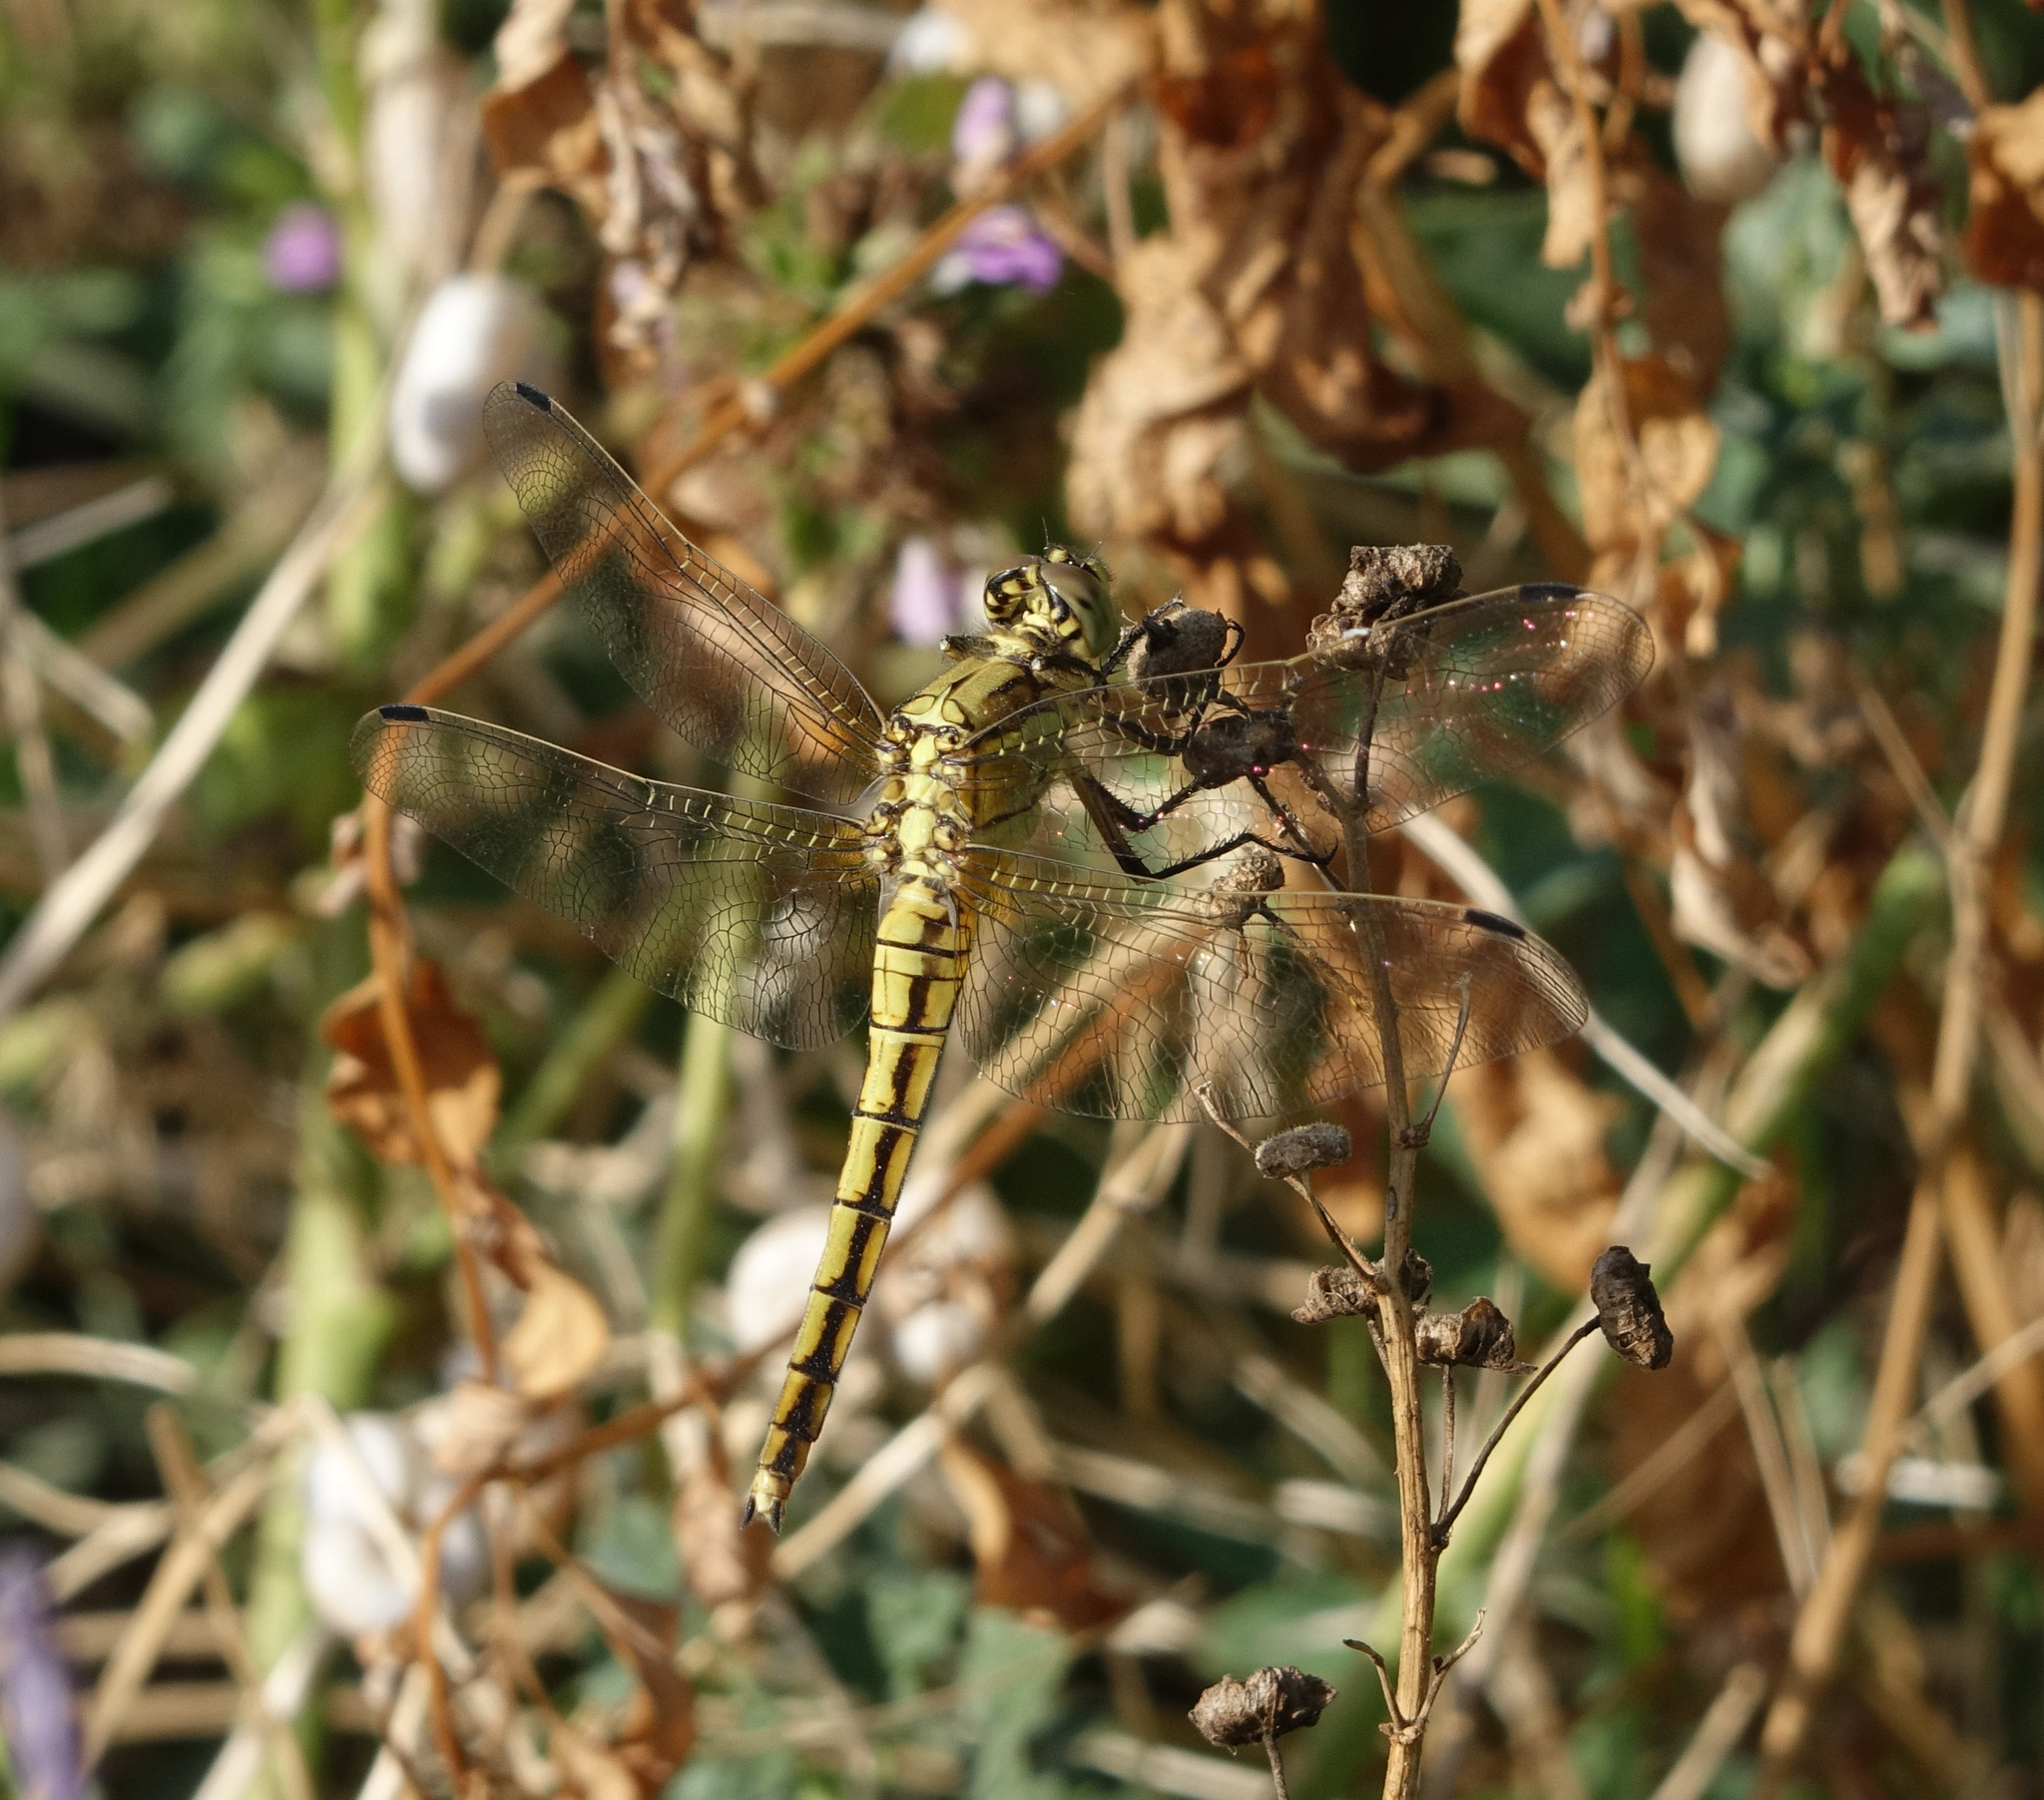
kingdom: Animalia
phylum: Arthropoda
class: Insecta
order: Odonata
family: Libellulidae
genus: Orthetrum
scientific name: Orthetrum cancellatum
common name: Black-tailed skimmer
